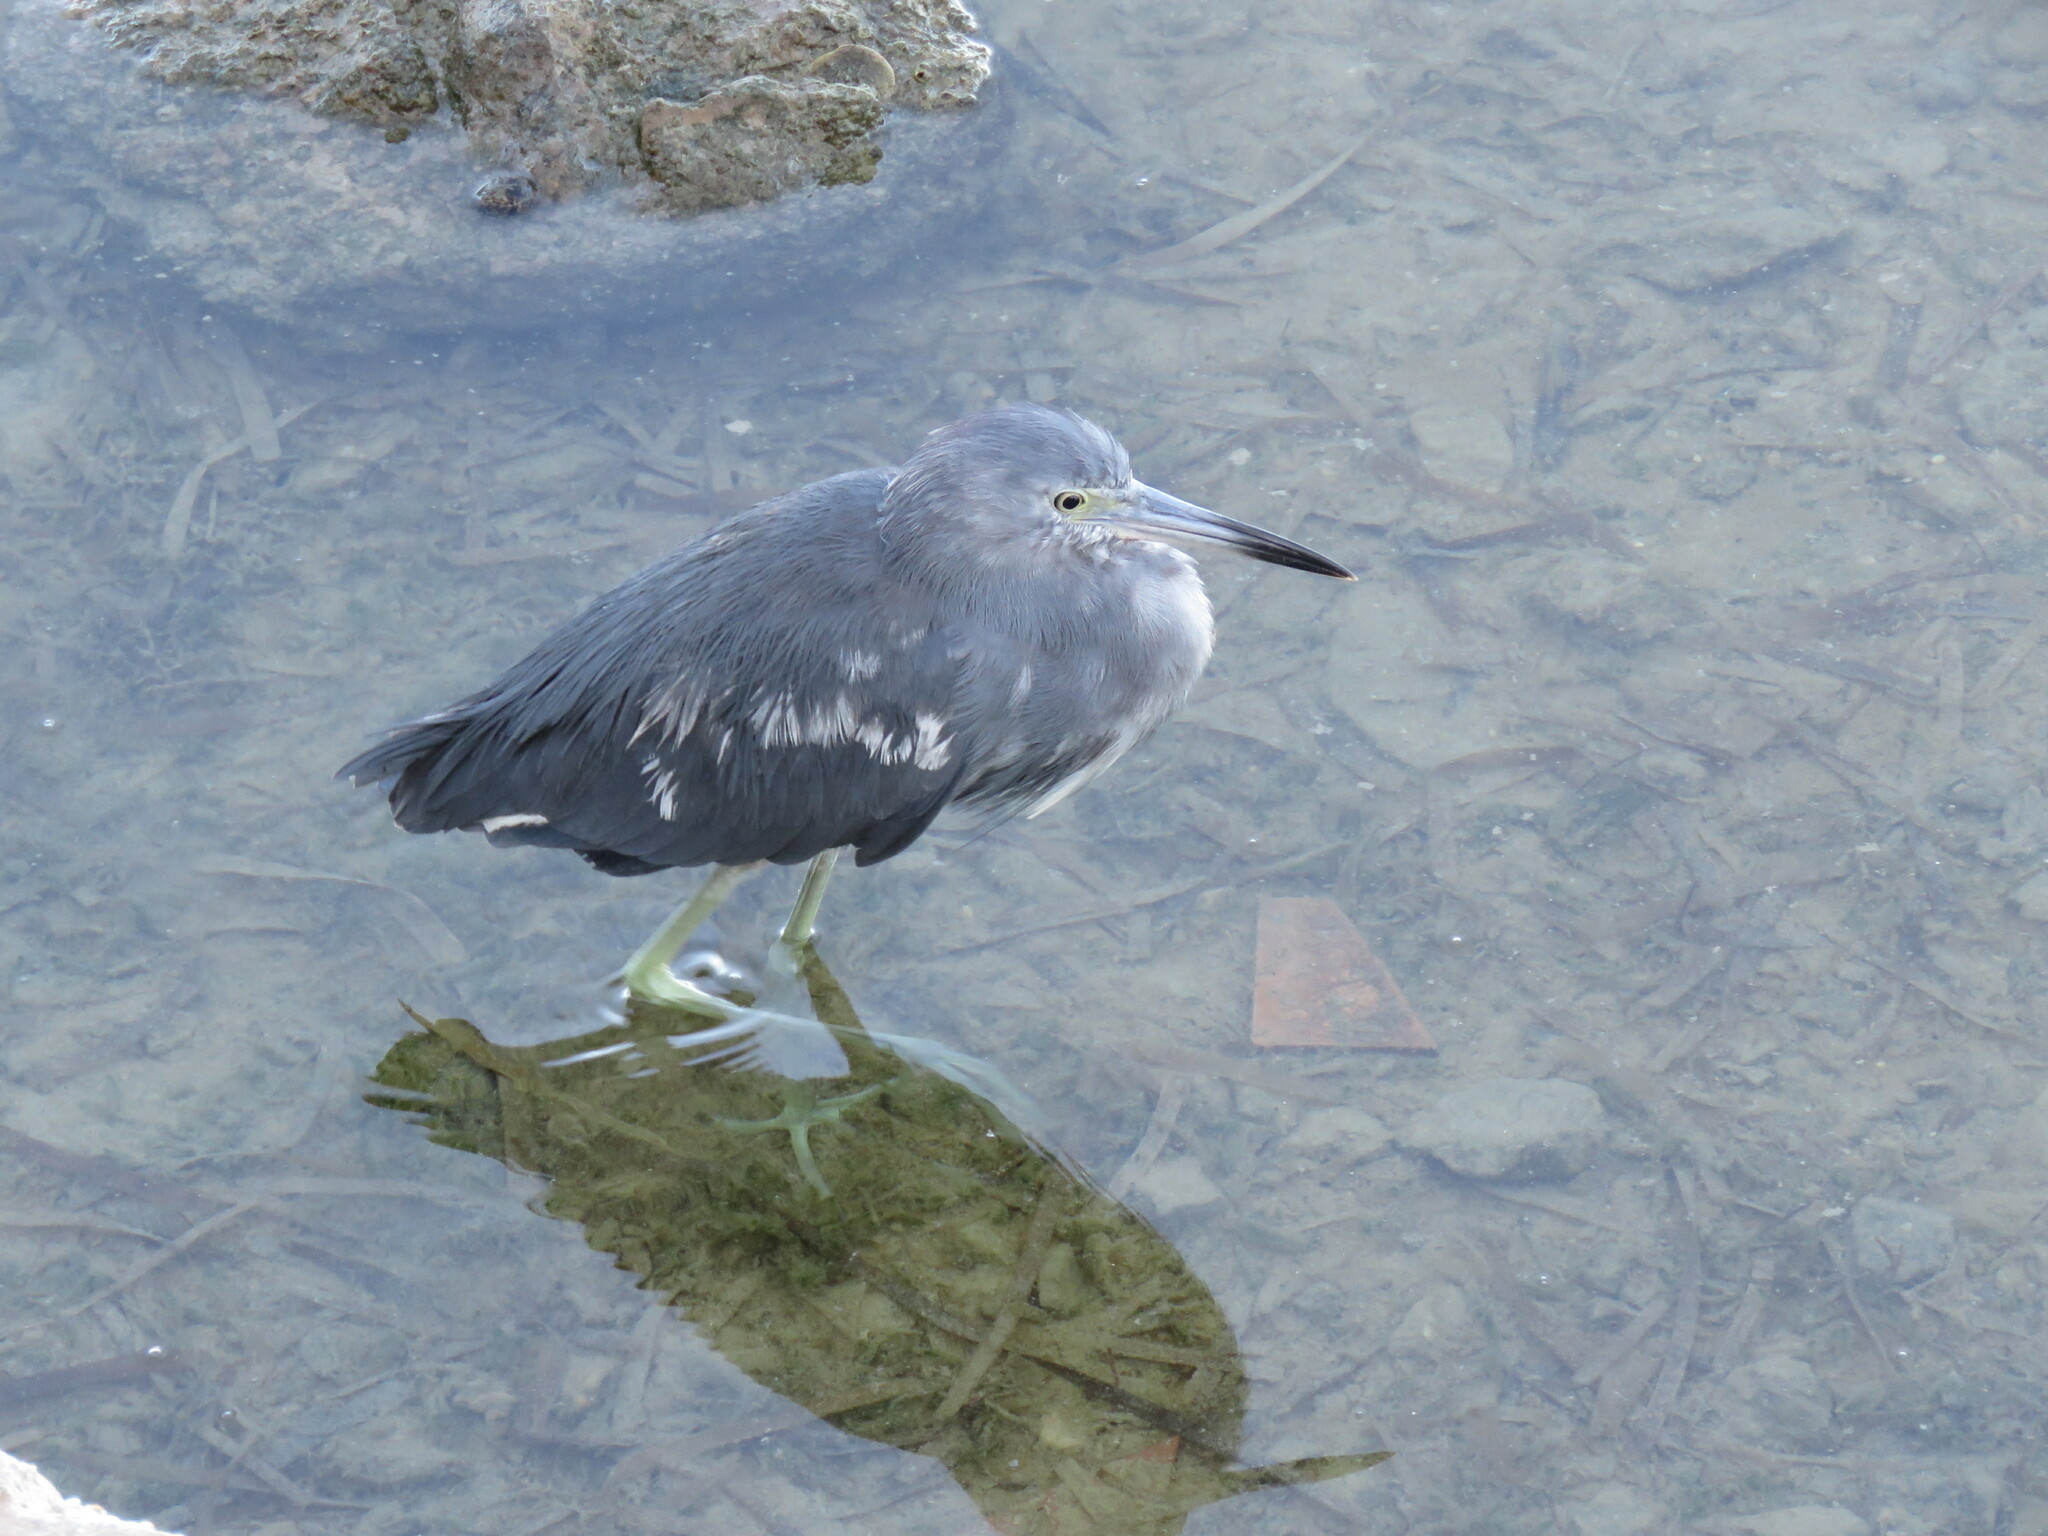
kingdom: Animalia
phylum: Chordata
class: Aves
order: Pelecaniformes
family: Ardeidae
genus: Egretta
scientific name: Egretta caerulea
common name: Little blue heron
